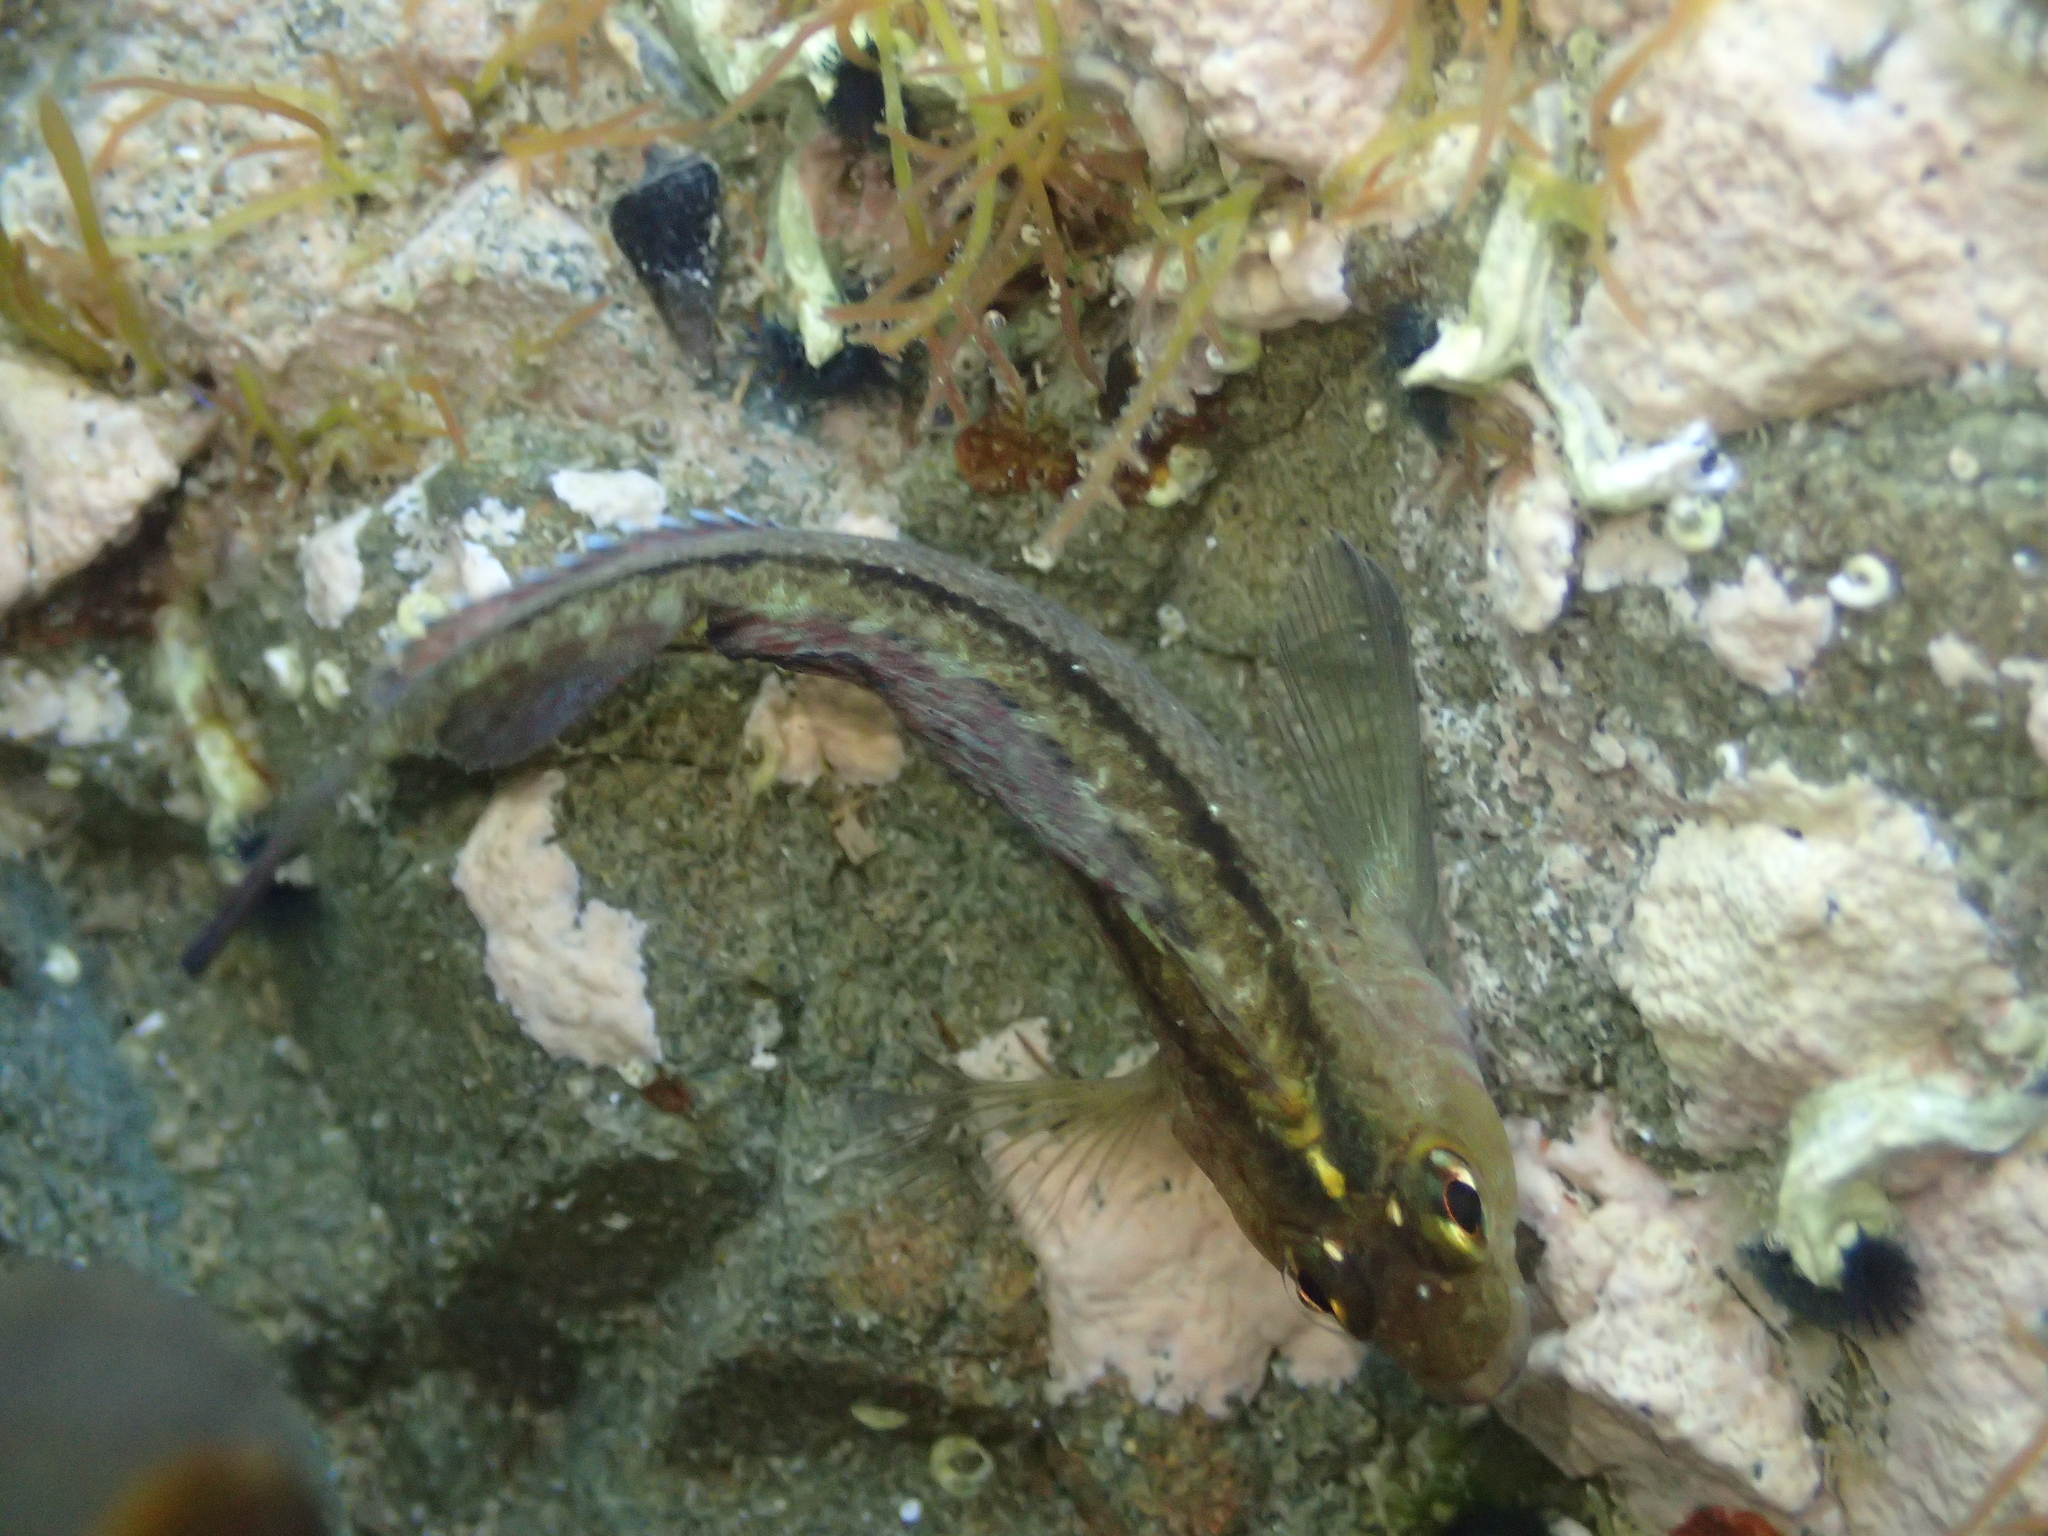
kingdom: Animalia
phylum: Chordata
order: Perciformes
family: Tripterygiidae
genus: Forsterygion
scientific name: Forsterygion lapillum
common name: Common triplefin
